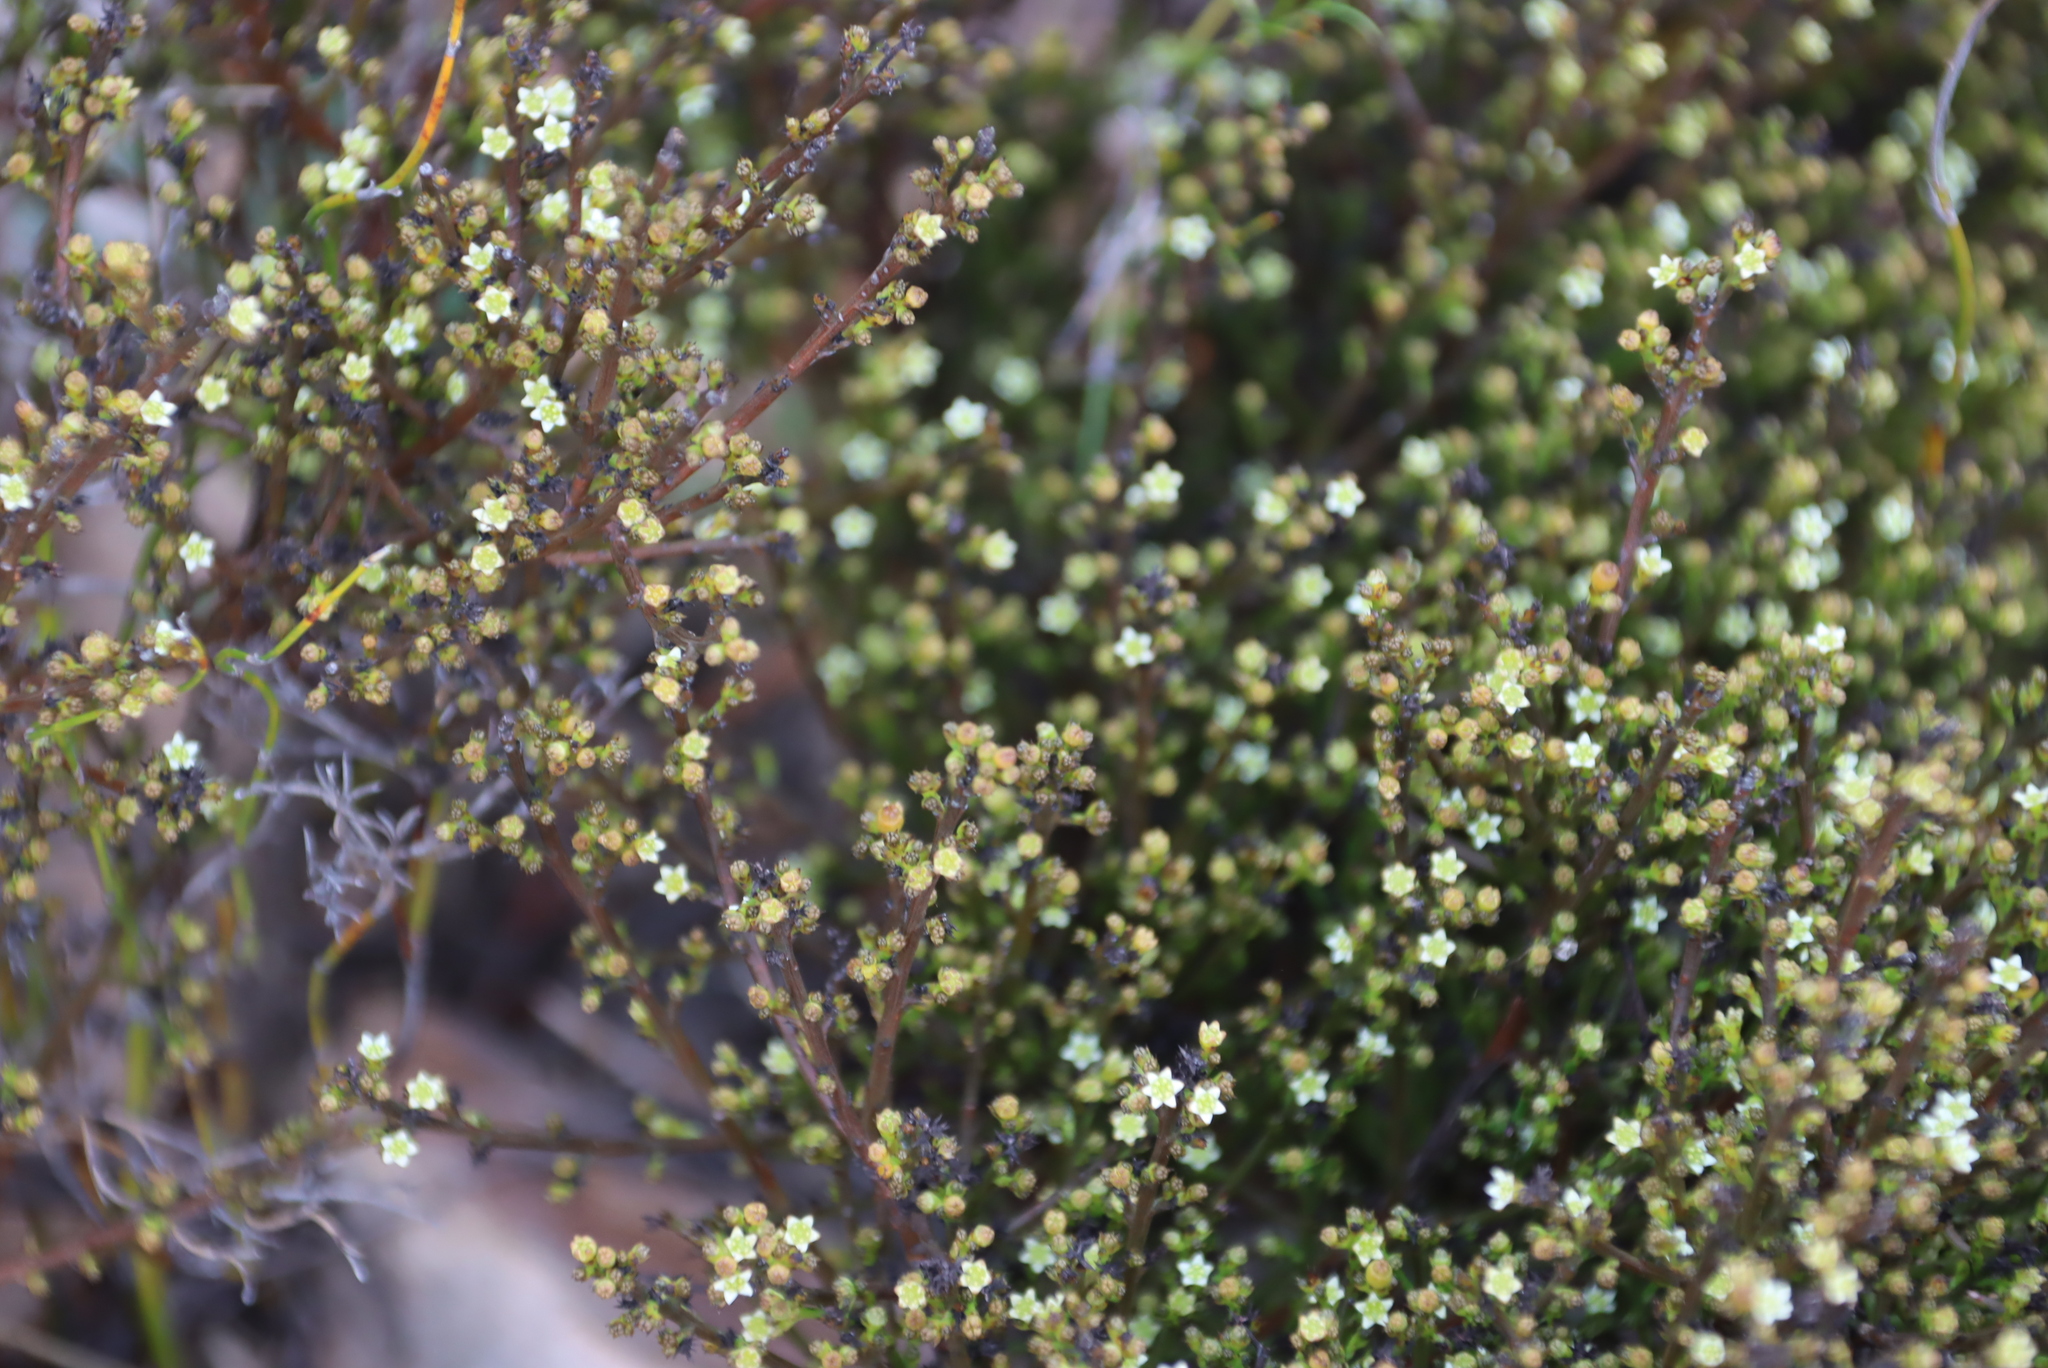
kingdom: Plantae
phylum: Tracheophyta
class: Magnoliopsida
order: Santalales
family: Thesiaceae
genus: Thesium
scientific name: Thesium nigroperianthum
